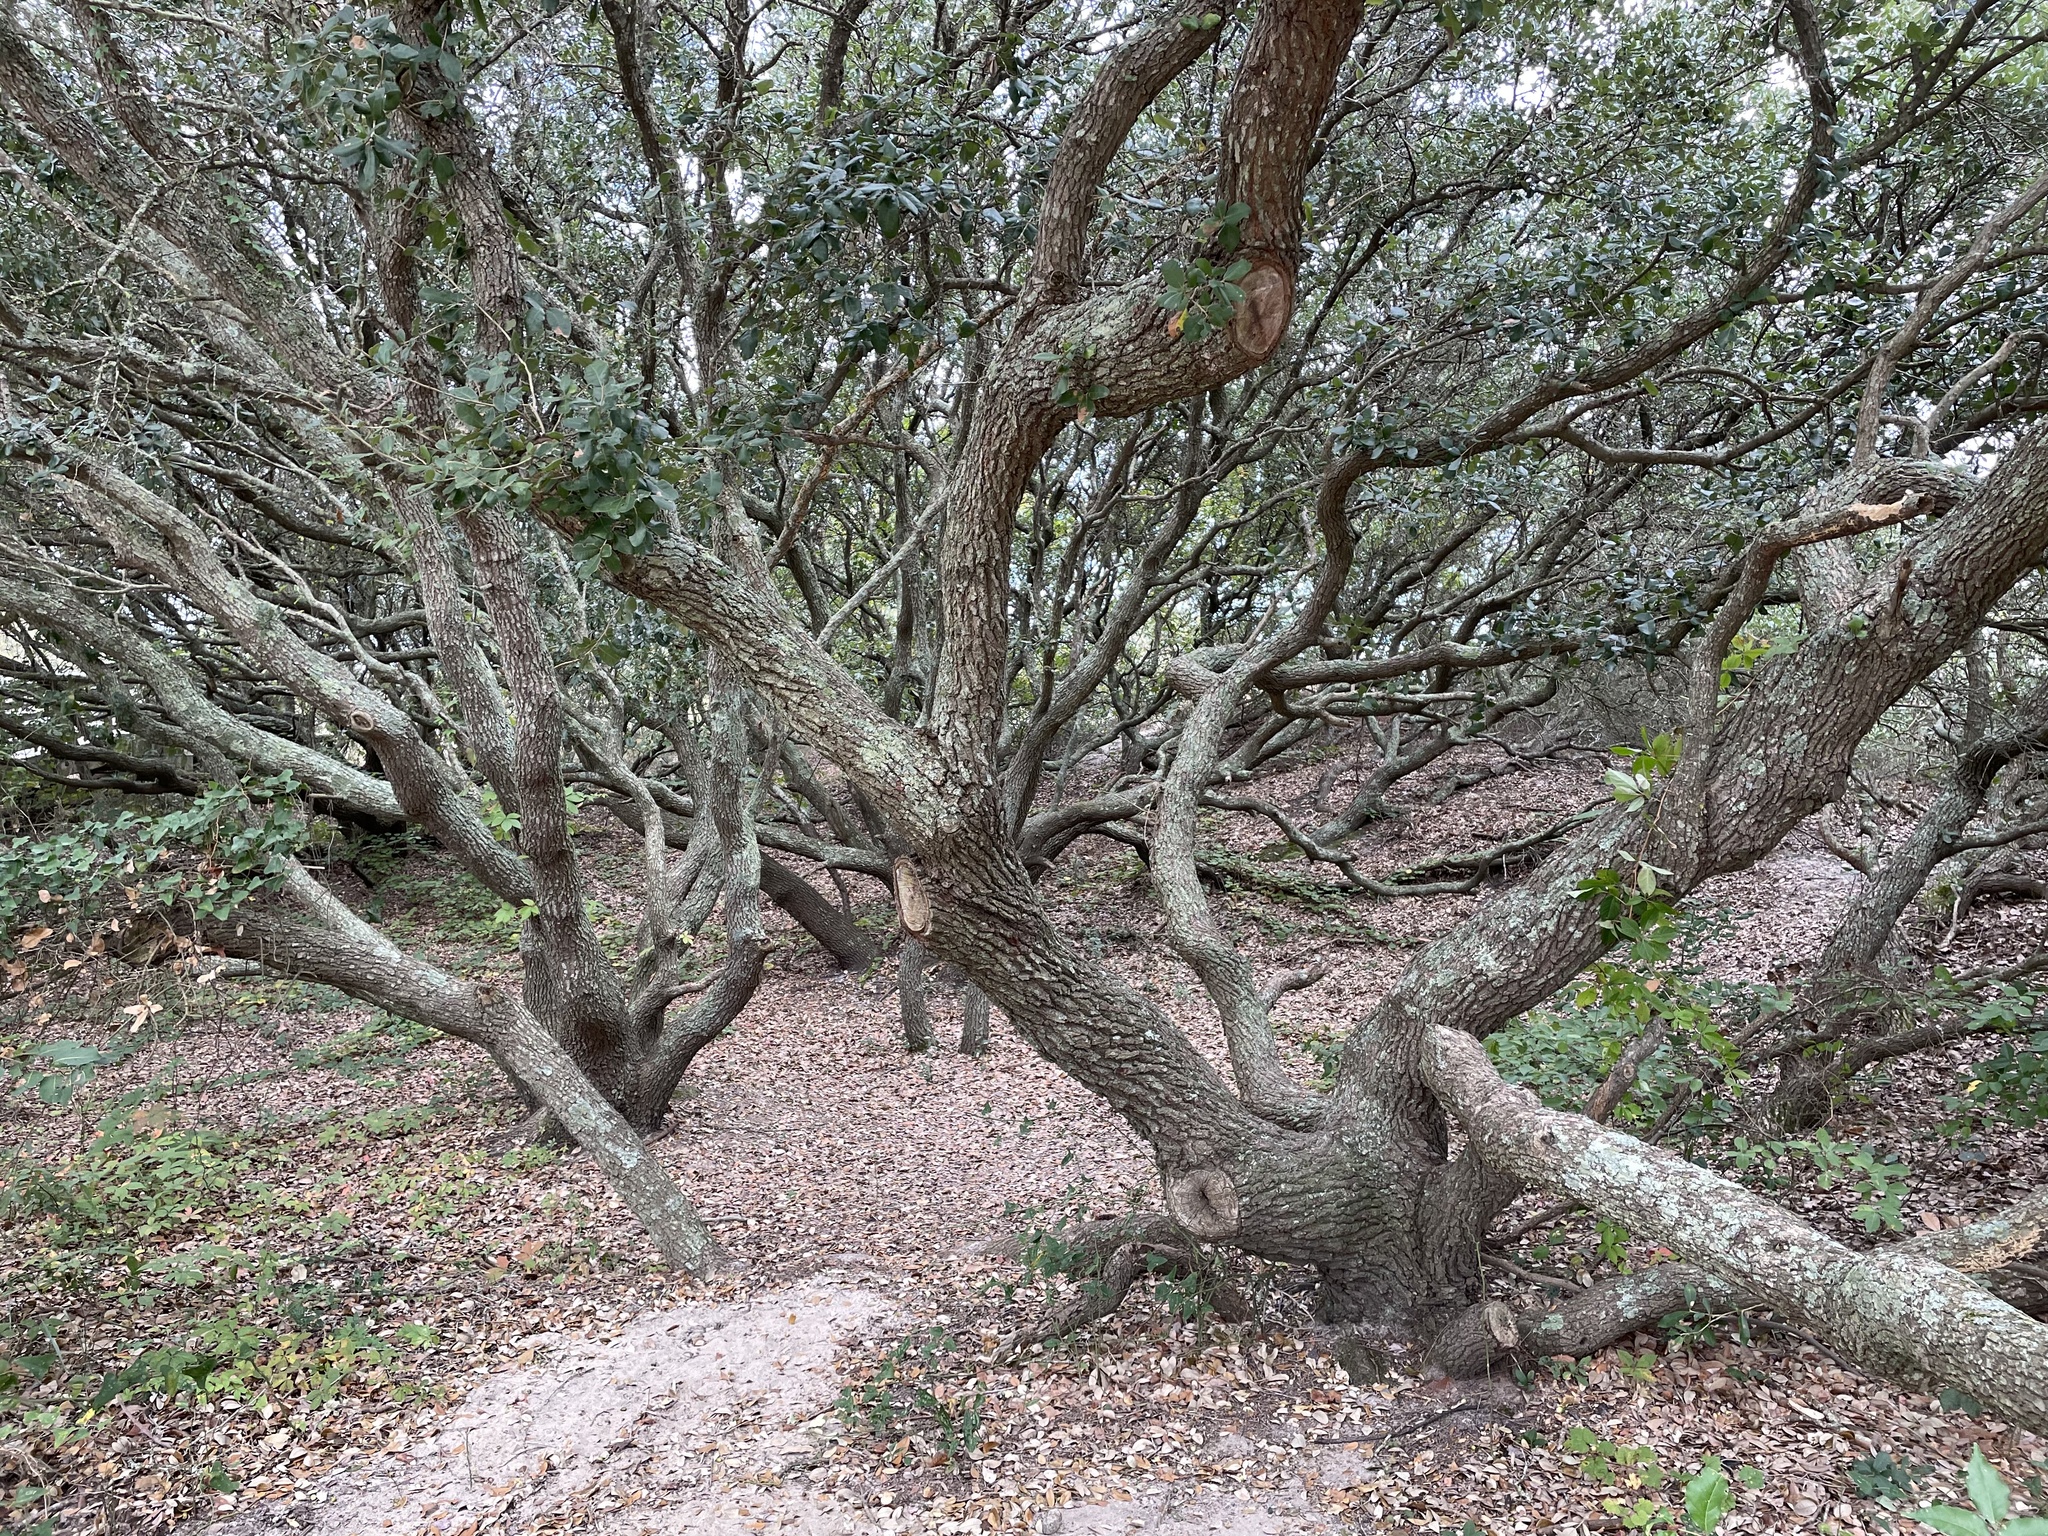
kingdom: Plantae
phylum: Tracheophyta
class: Magnoliopsida
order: Fagales
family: Fagaceae
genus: Quercus
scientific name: Quercus virginiana
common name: Southern live oak
